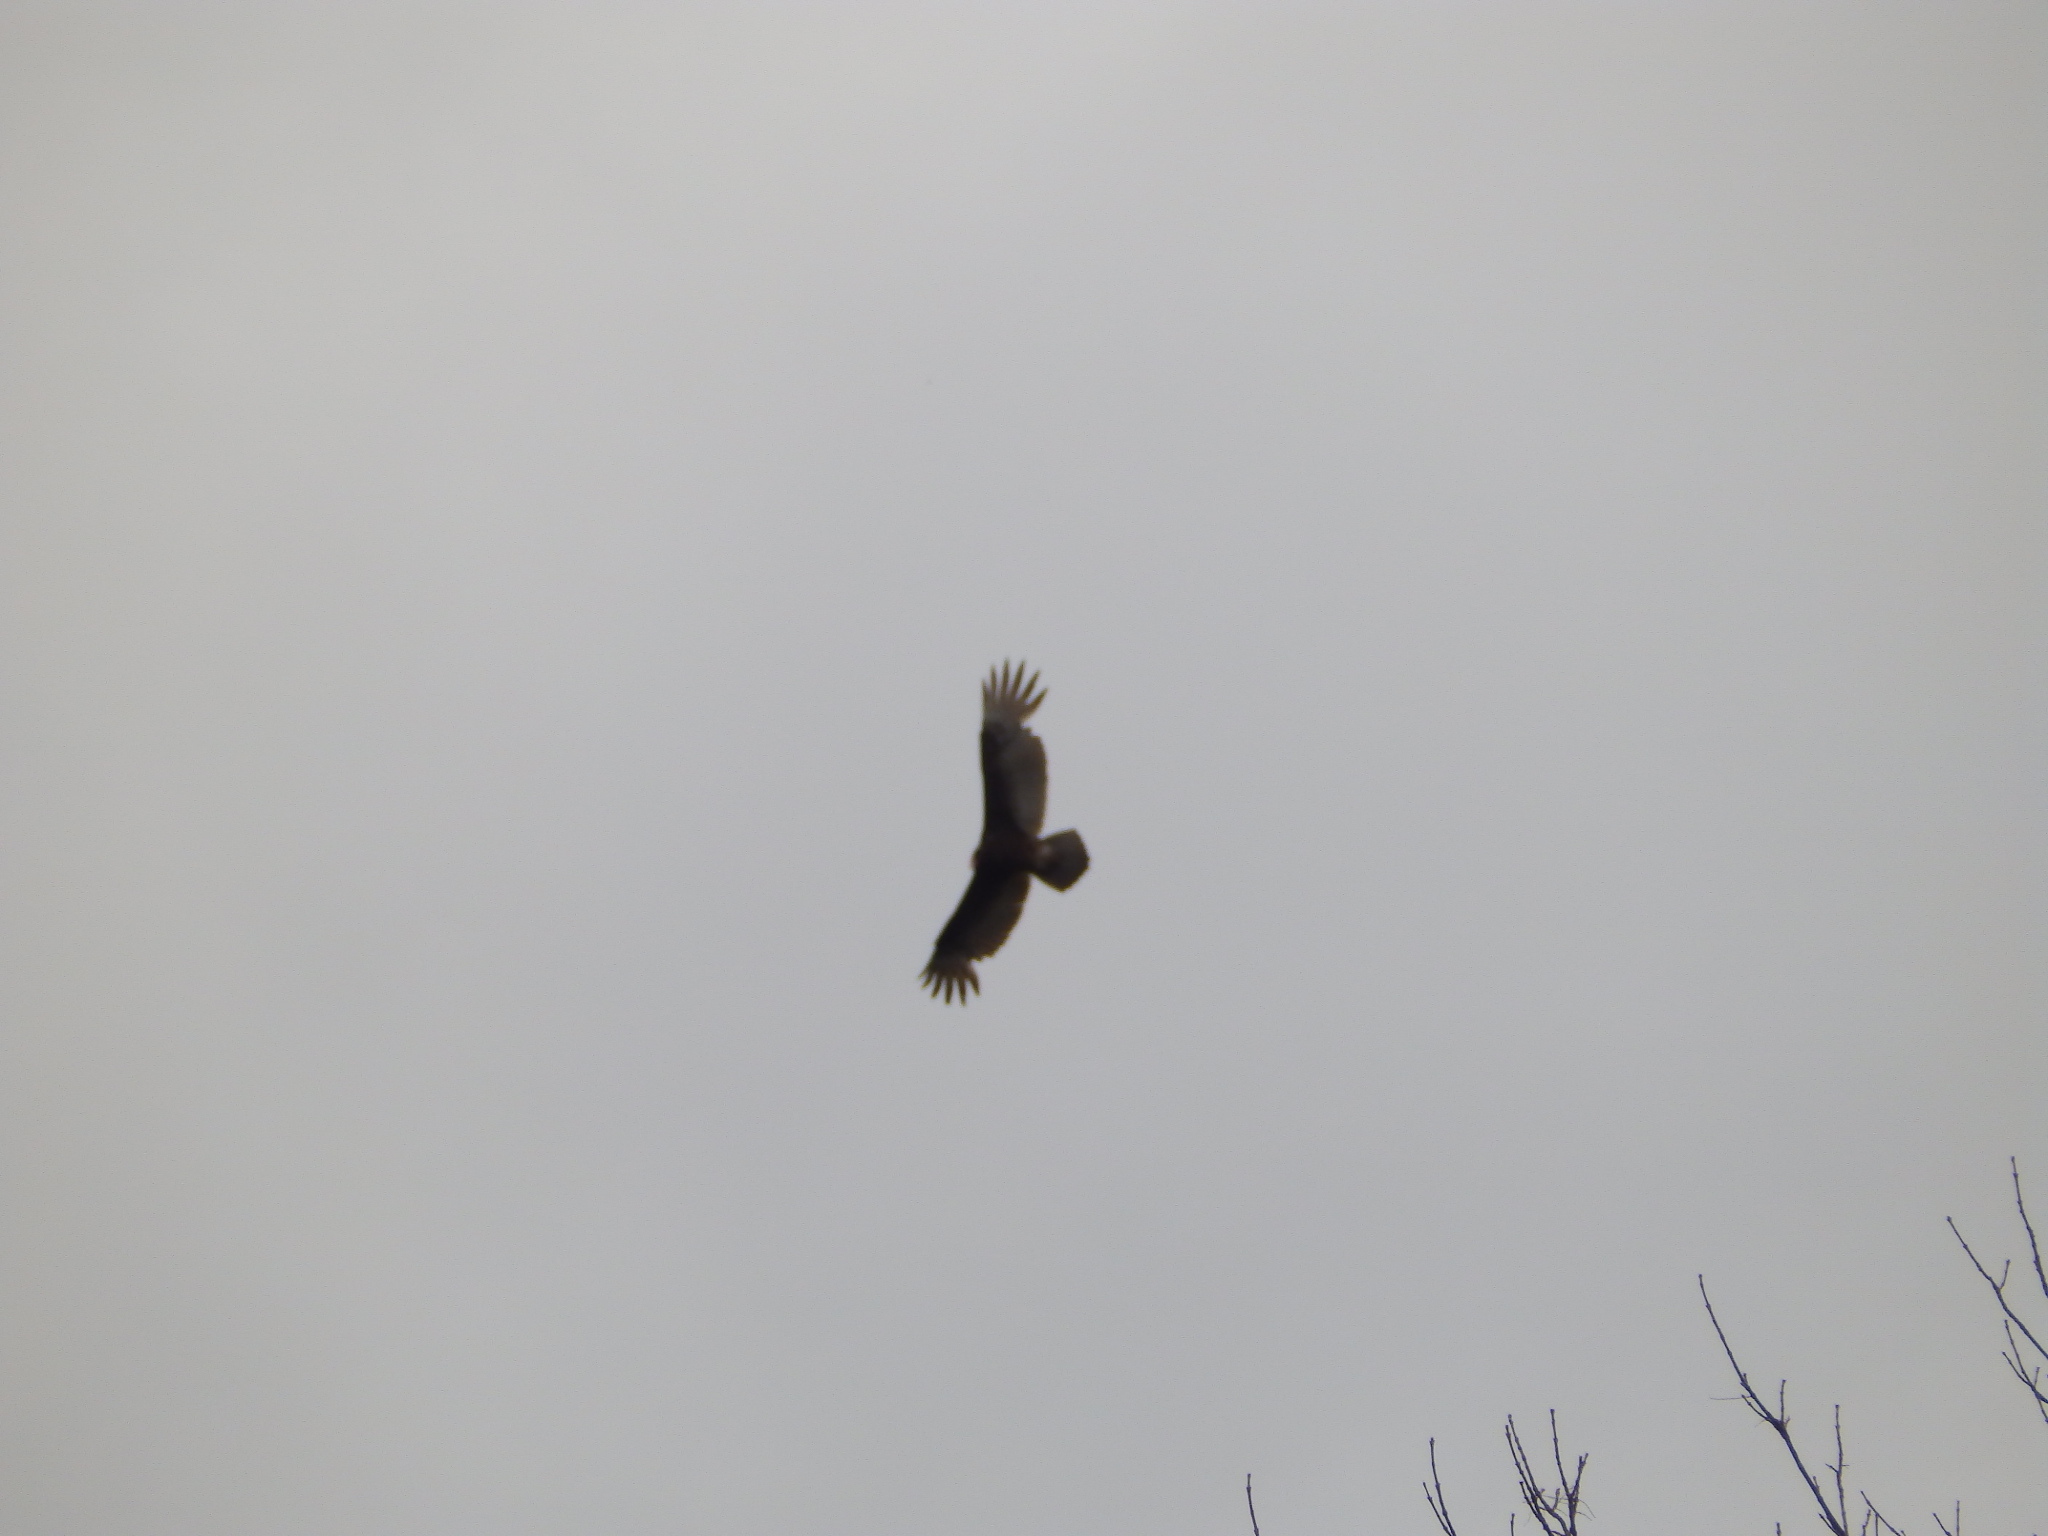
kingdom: Animalia
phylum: Chordata
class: Aves
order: Accipitriformes
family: Cathartidae
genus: Cathartes
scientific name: Cathartes aura
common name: Turkey vulture
